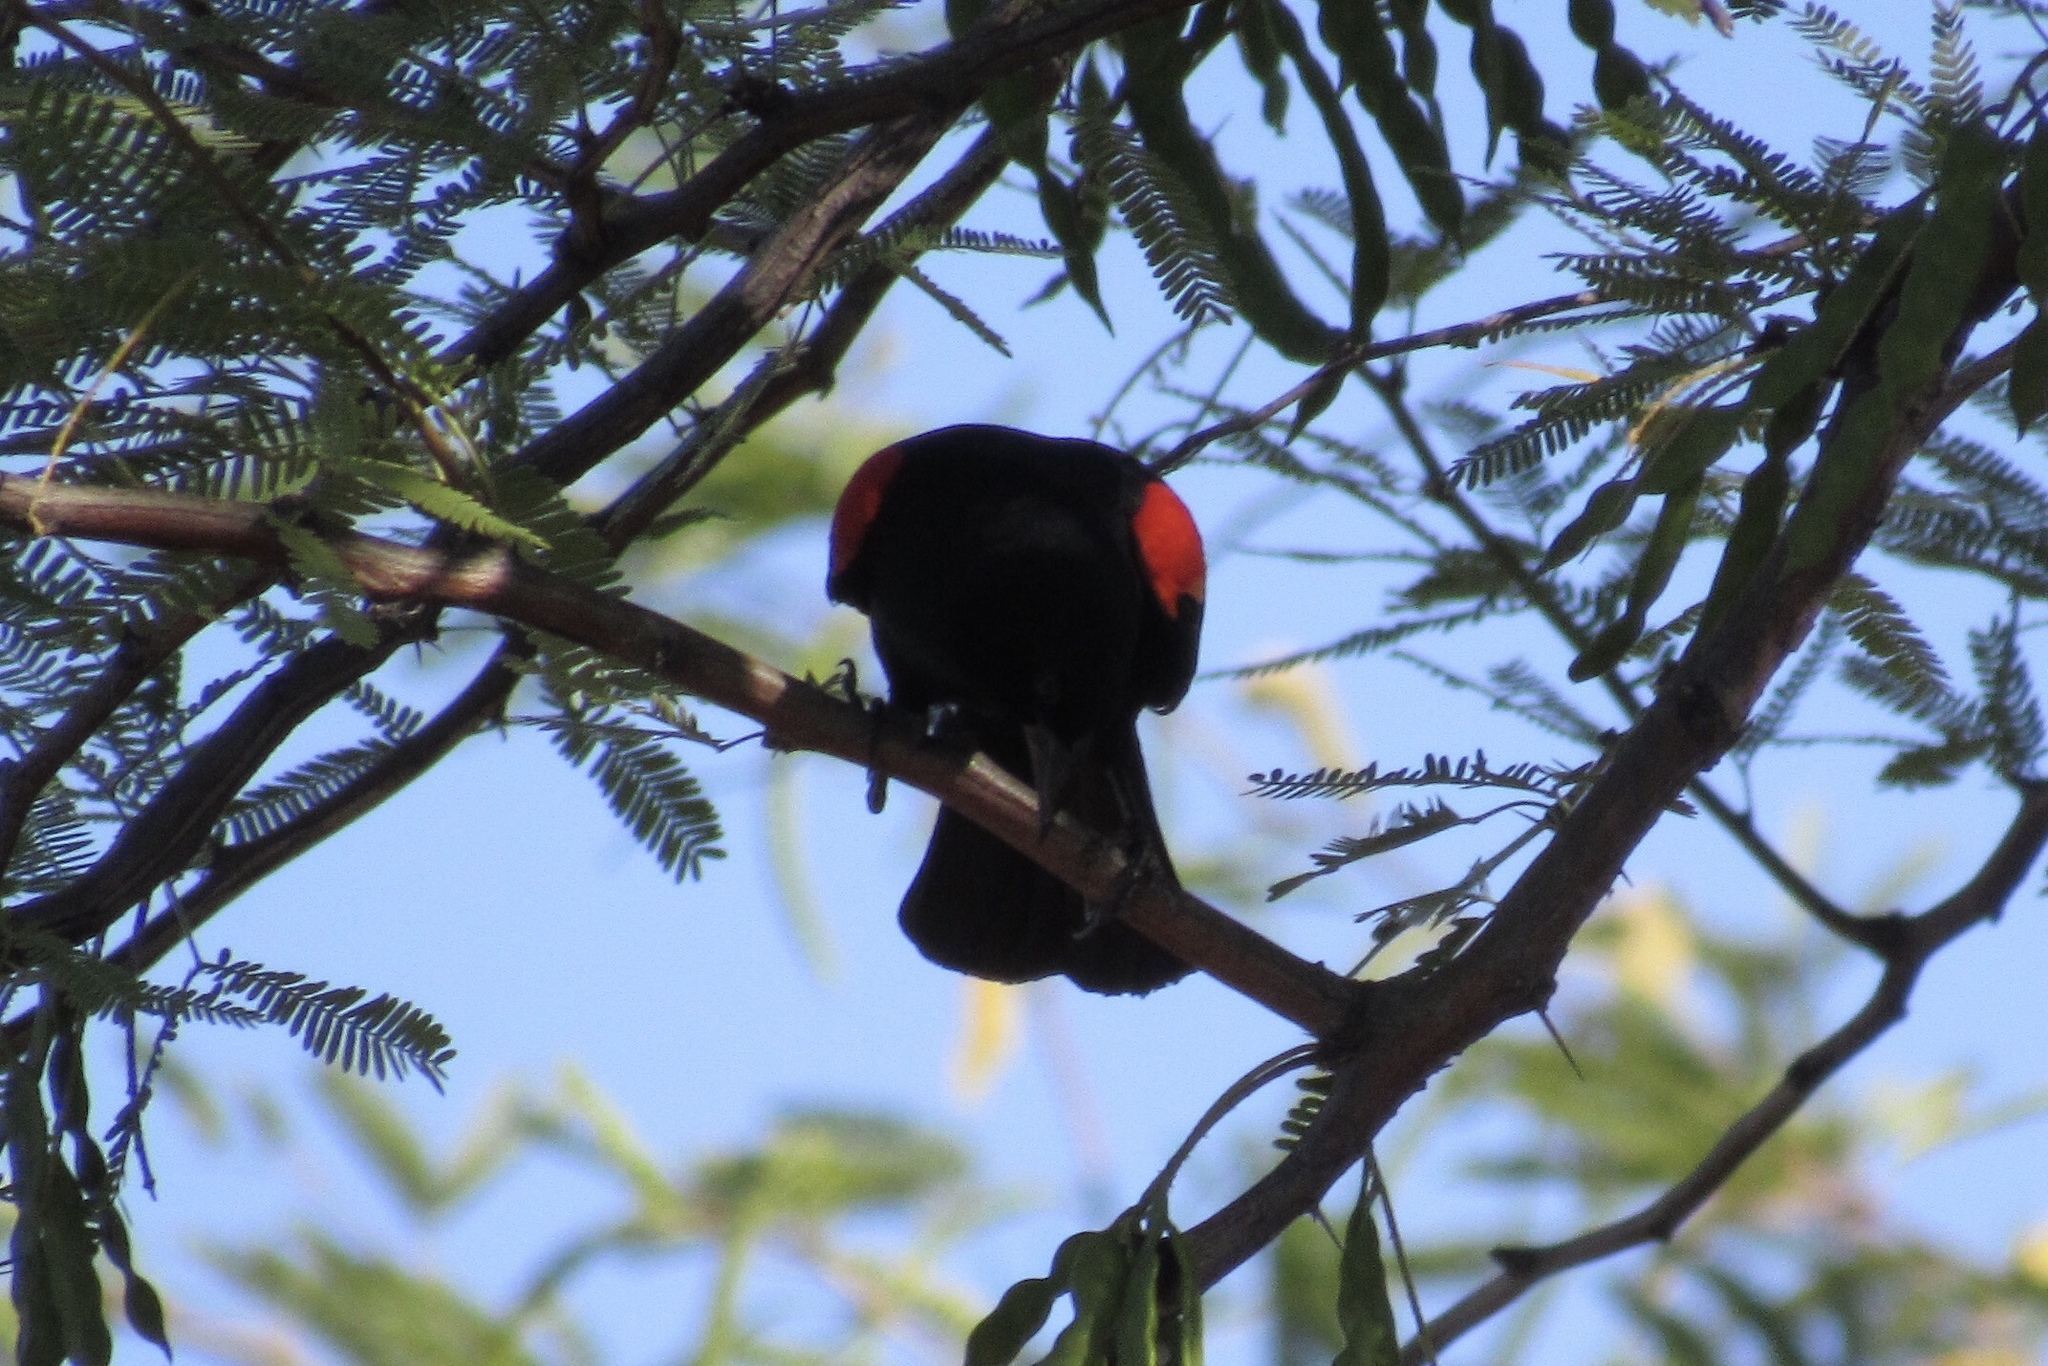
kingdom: Animalia
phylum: Chordata
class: Aves
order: Passeriformes
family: Icteridae
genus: Agelaius
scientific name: Agelaius phoeniceus
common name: Red-winged blackbird
